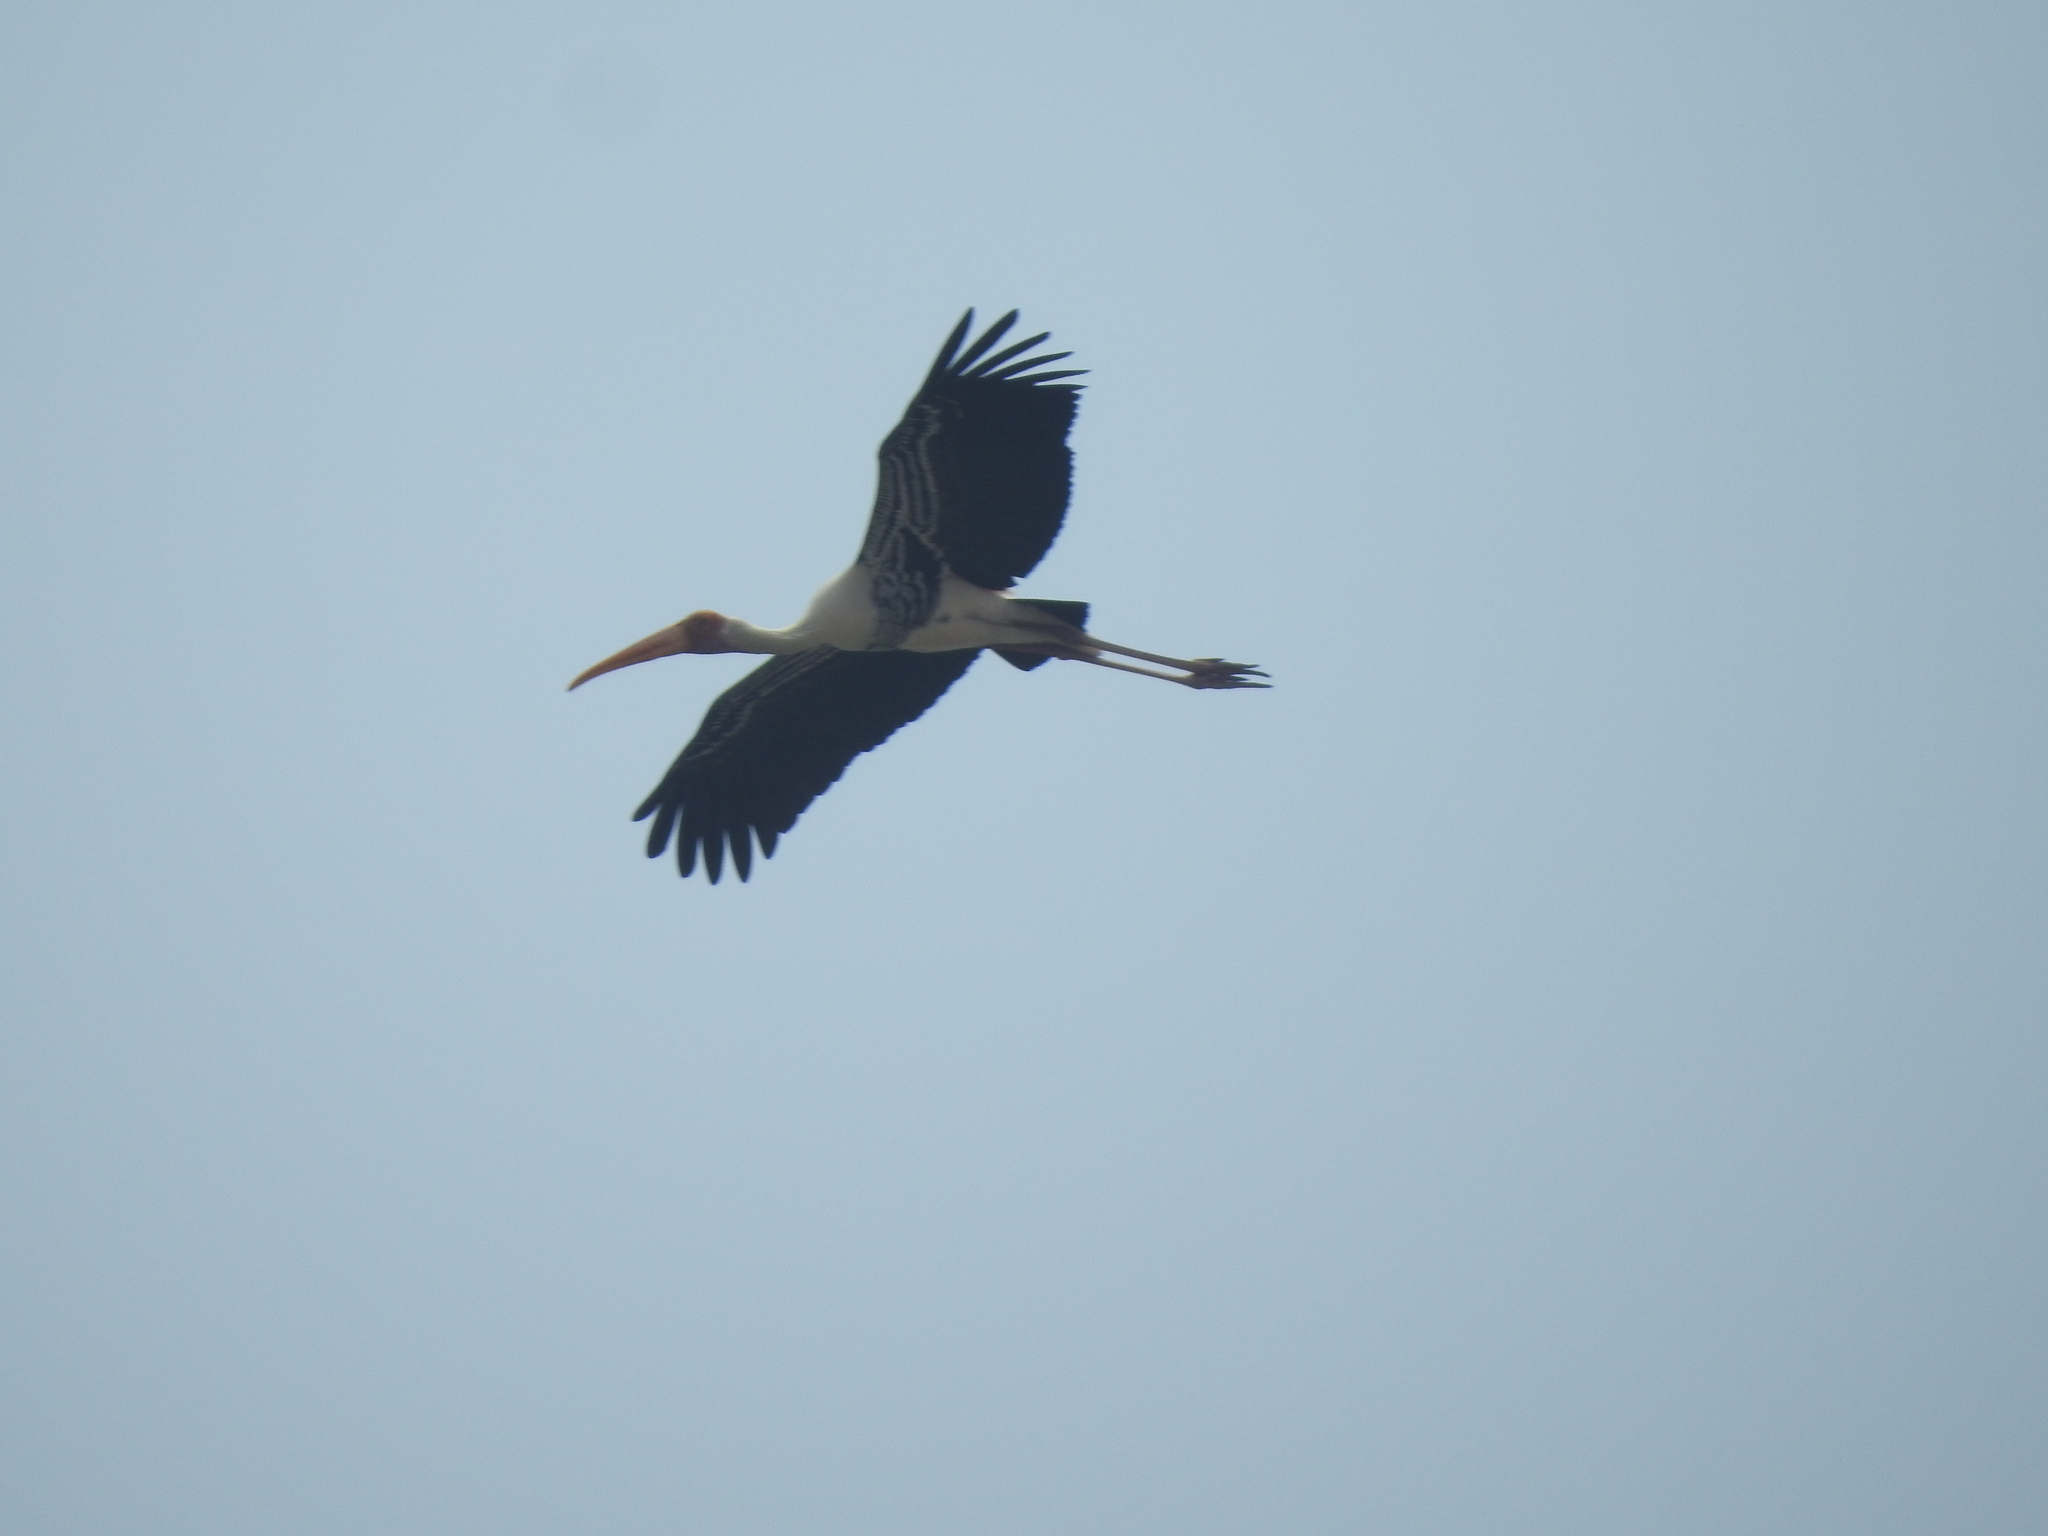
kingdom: Animalia
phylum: Chordata
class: Aves
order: Ciconiiformes
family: Ciconiidae
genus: Mycteria
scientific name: Mycteria leucocephala
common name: Painted stork
